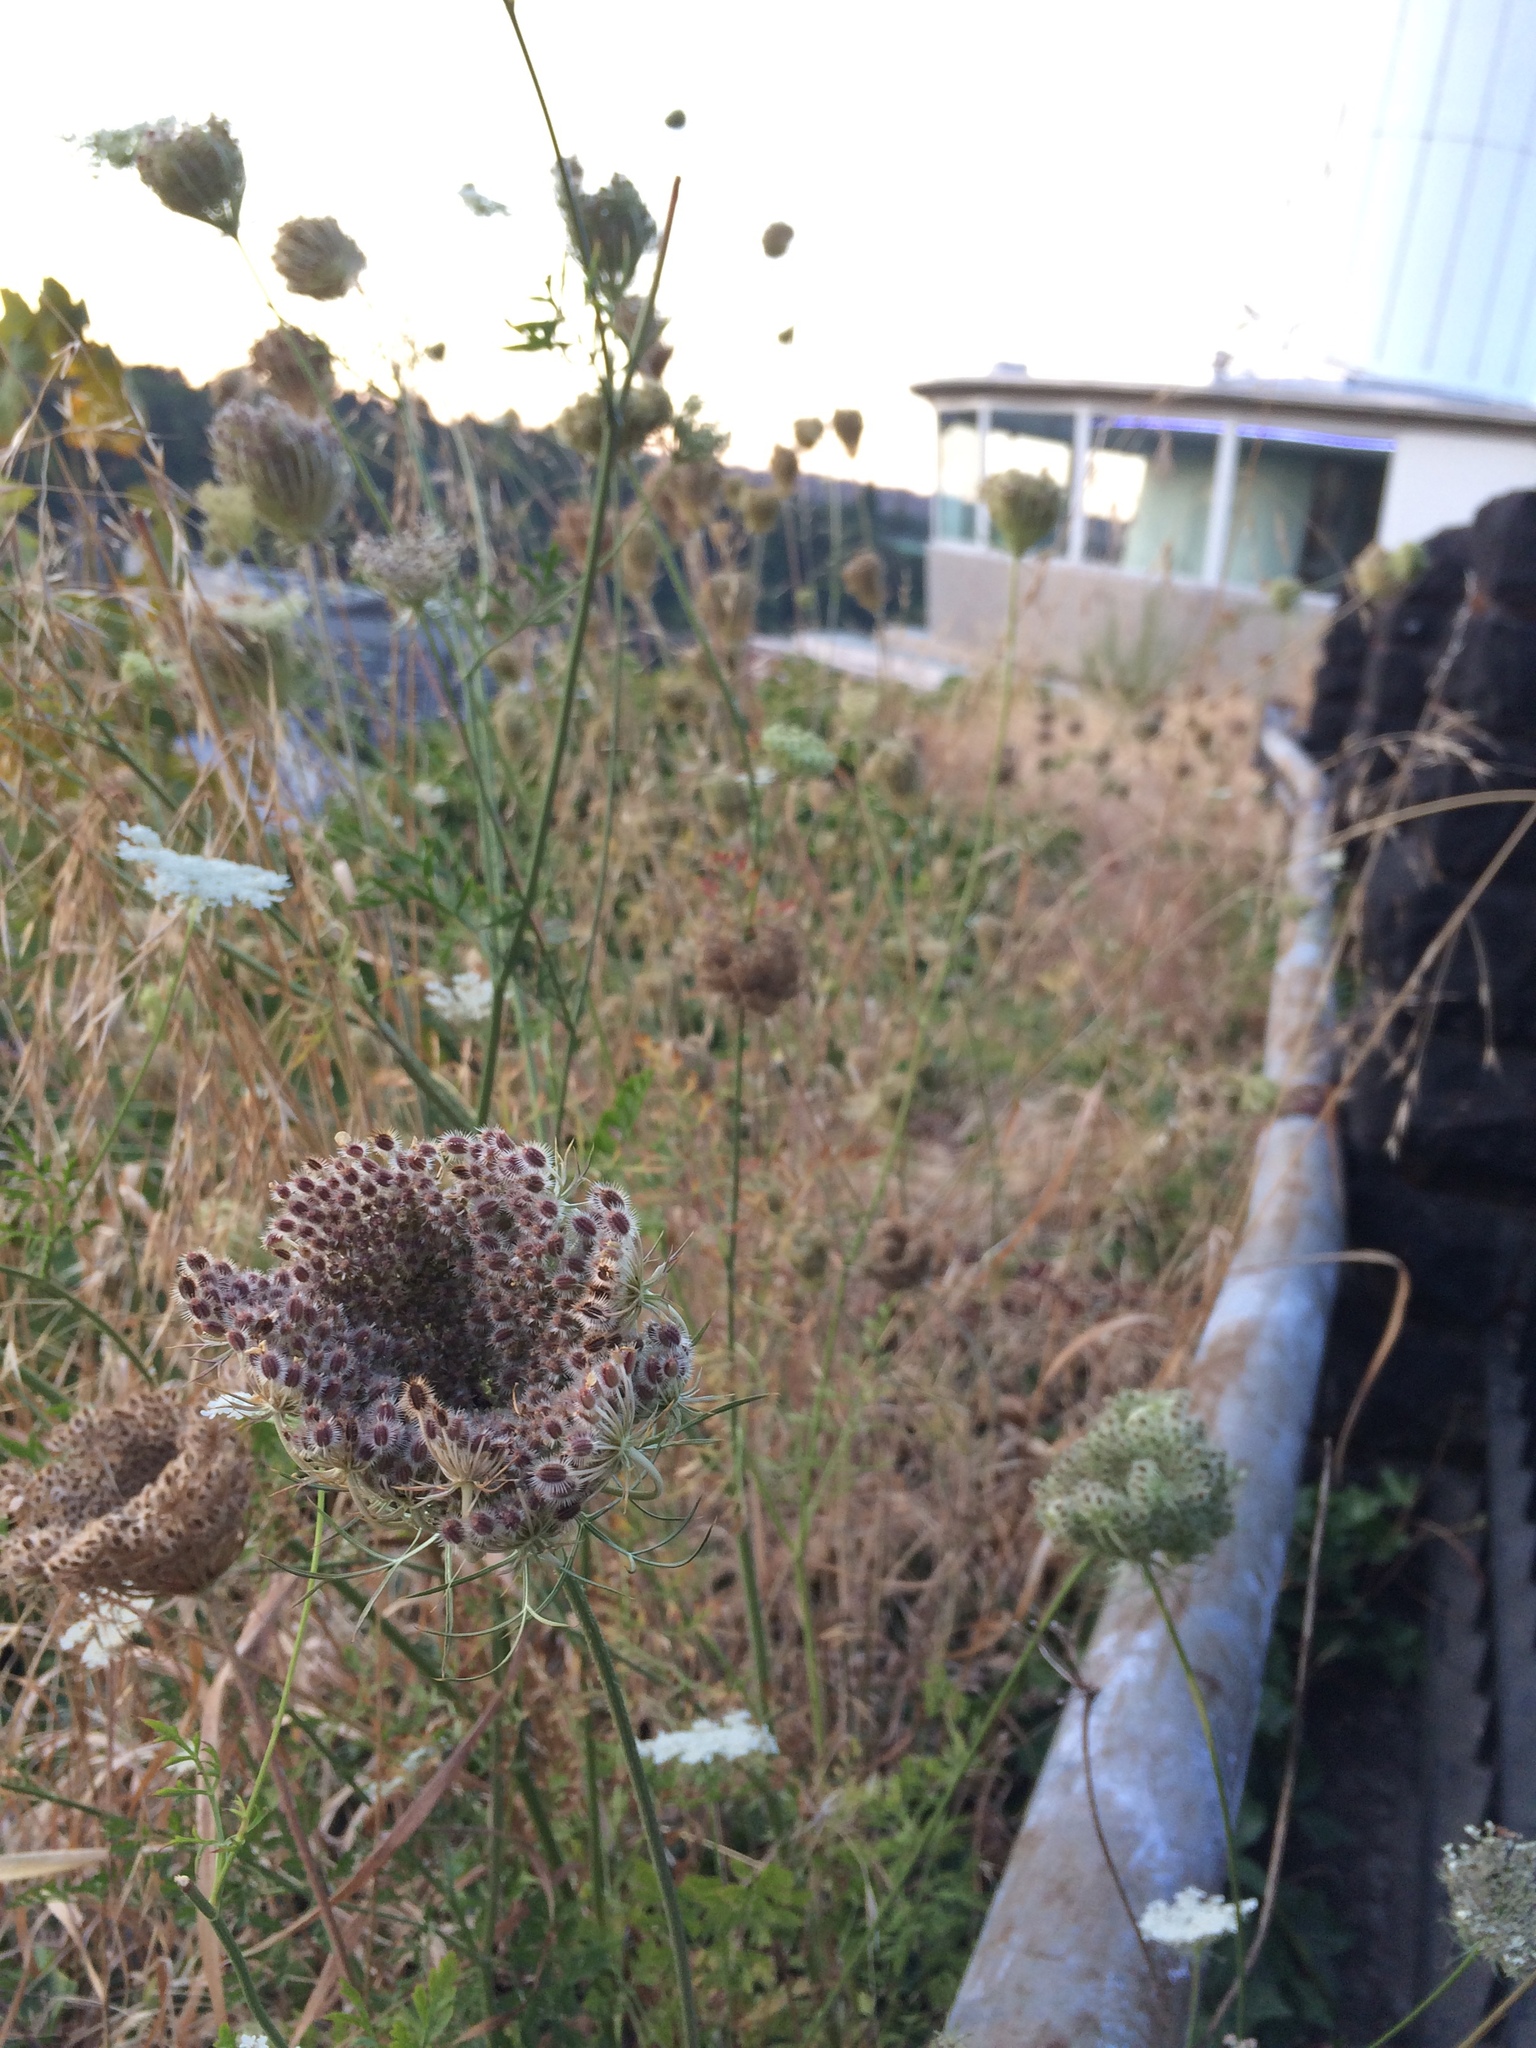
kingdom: Plantae
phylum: Tracheophyta
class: Magnoliopsida
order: Apiales
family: Apiaceae
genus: Daucus
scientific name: Daucus carota
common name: Wild carrot
